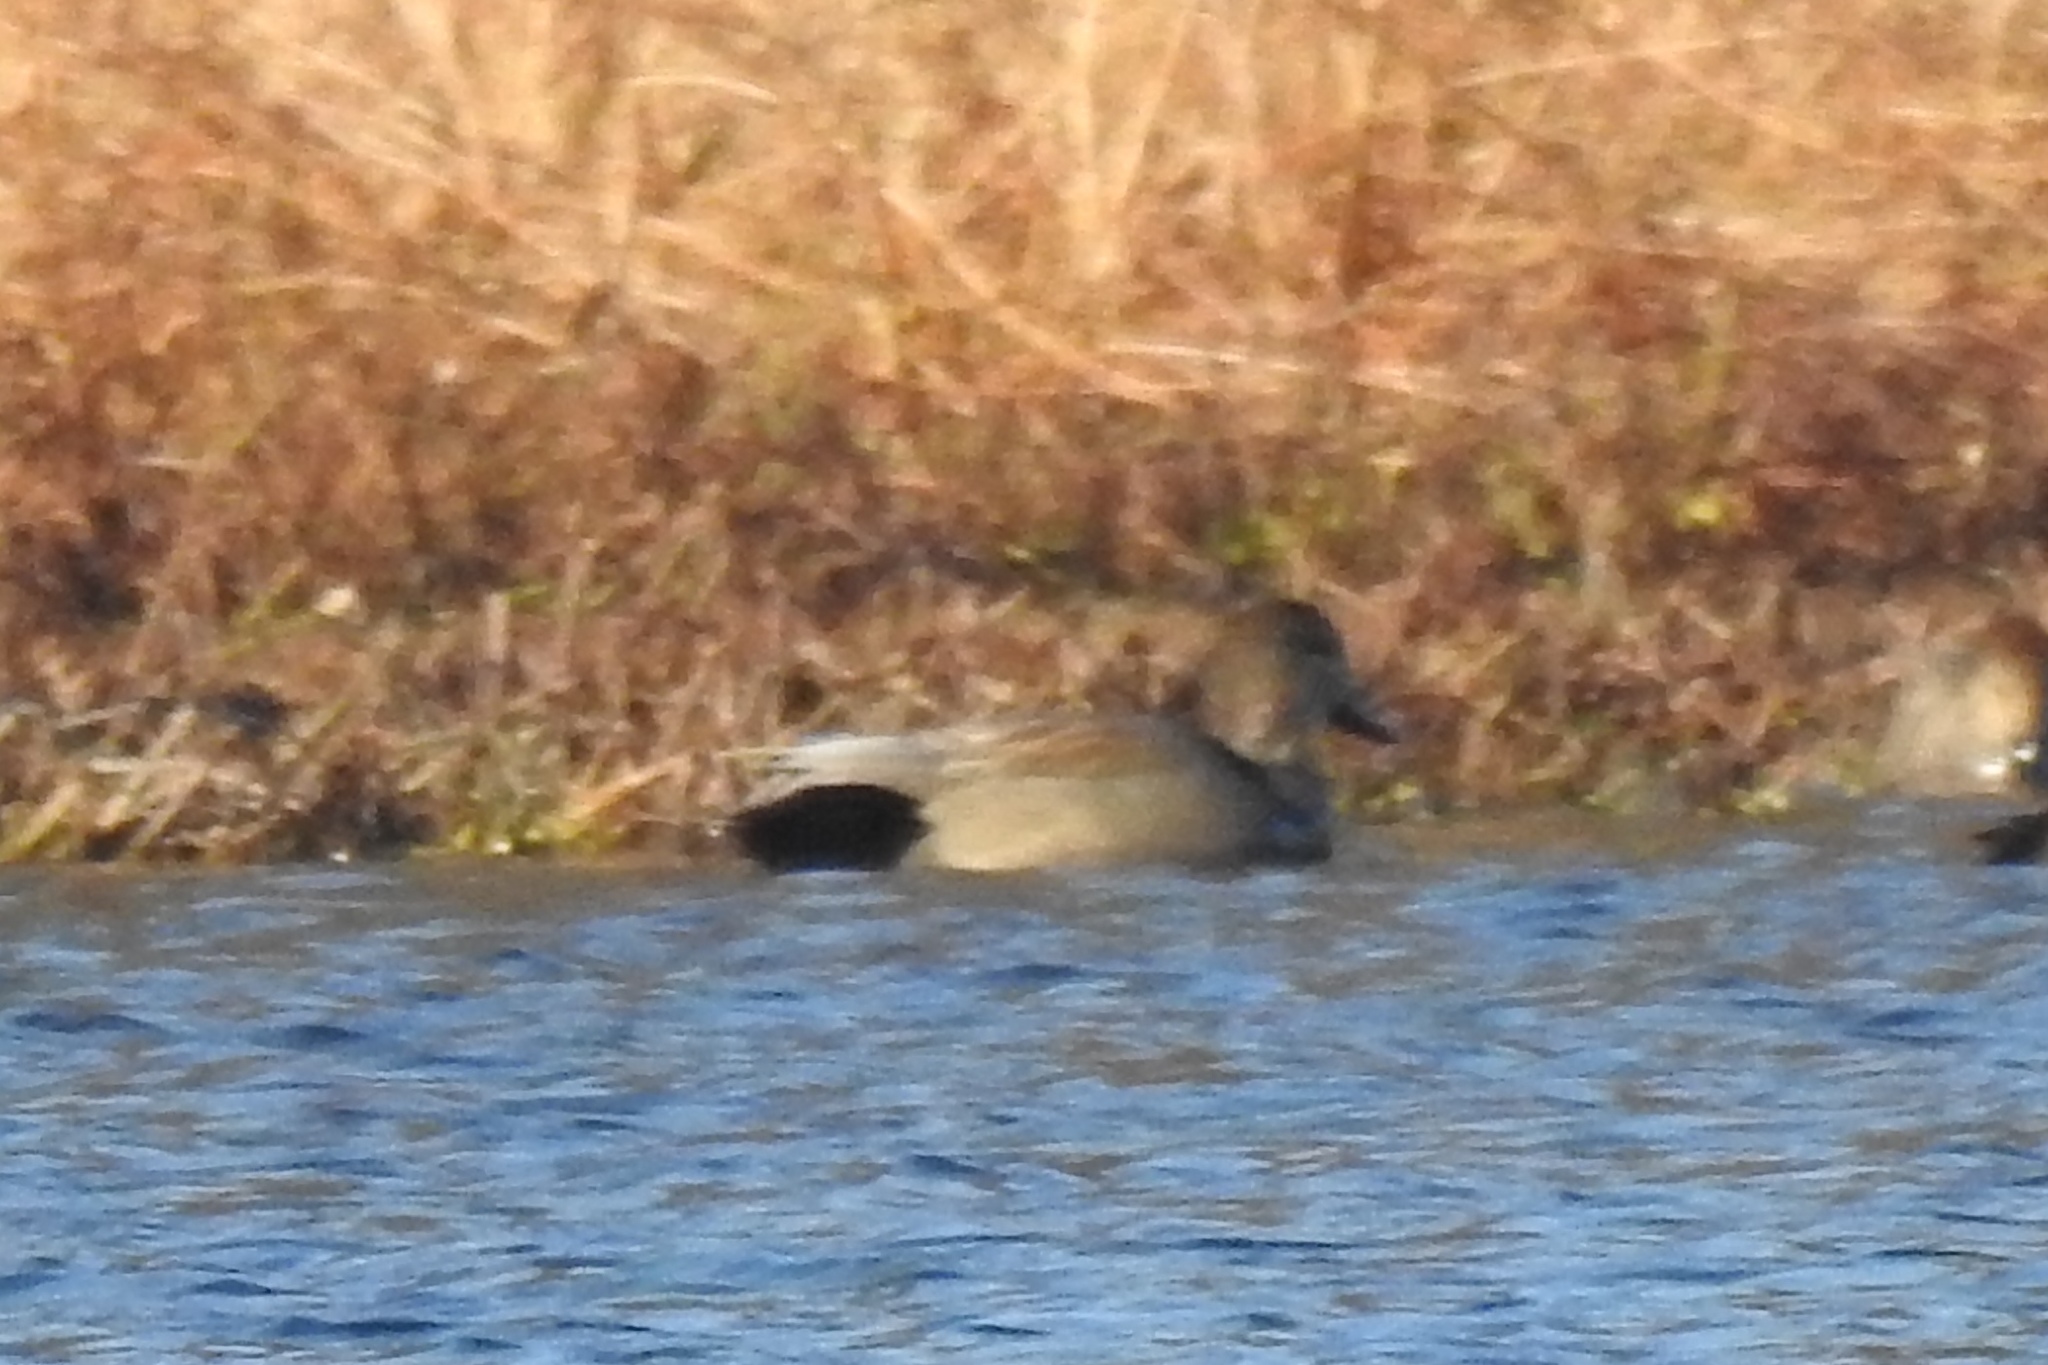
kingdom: Animalia
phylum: Chordata
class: Aves
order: Anseriformes
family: Anatidae
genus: Mareca
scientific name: Mareca strepera
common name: Gadwall
